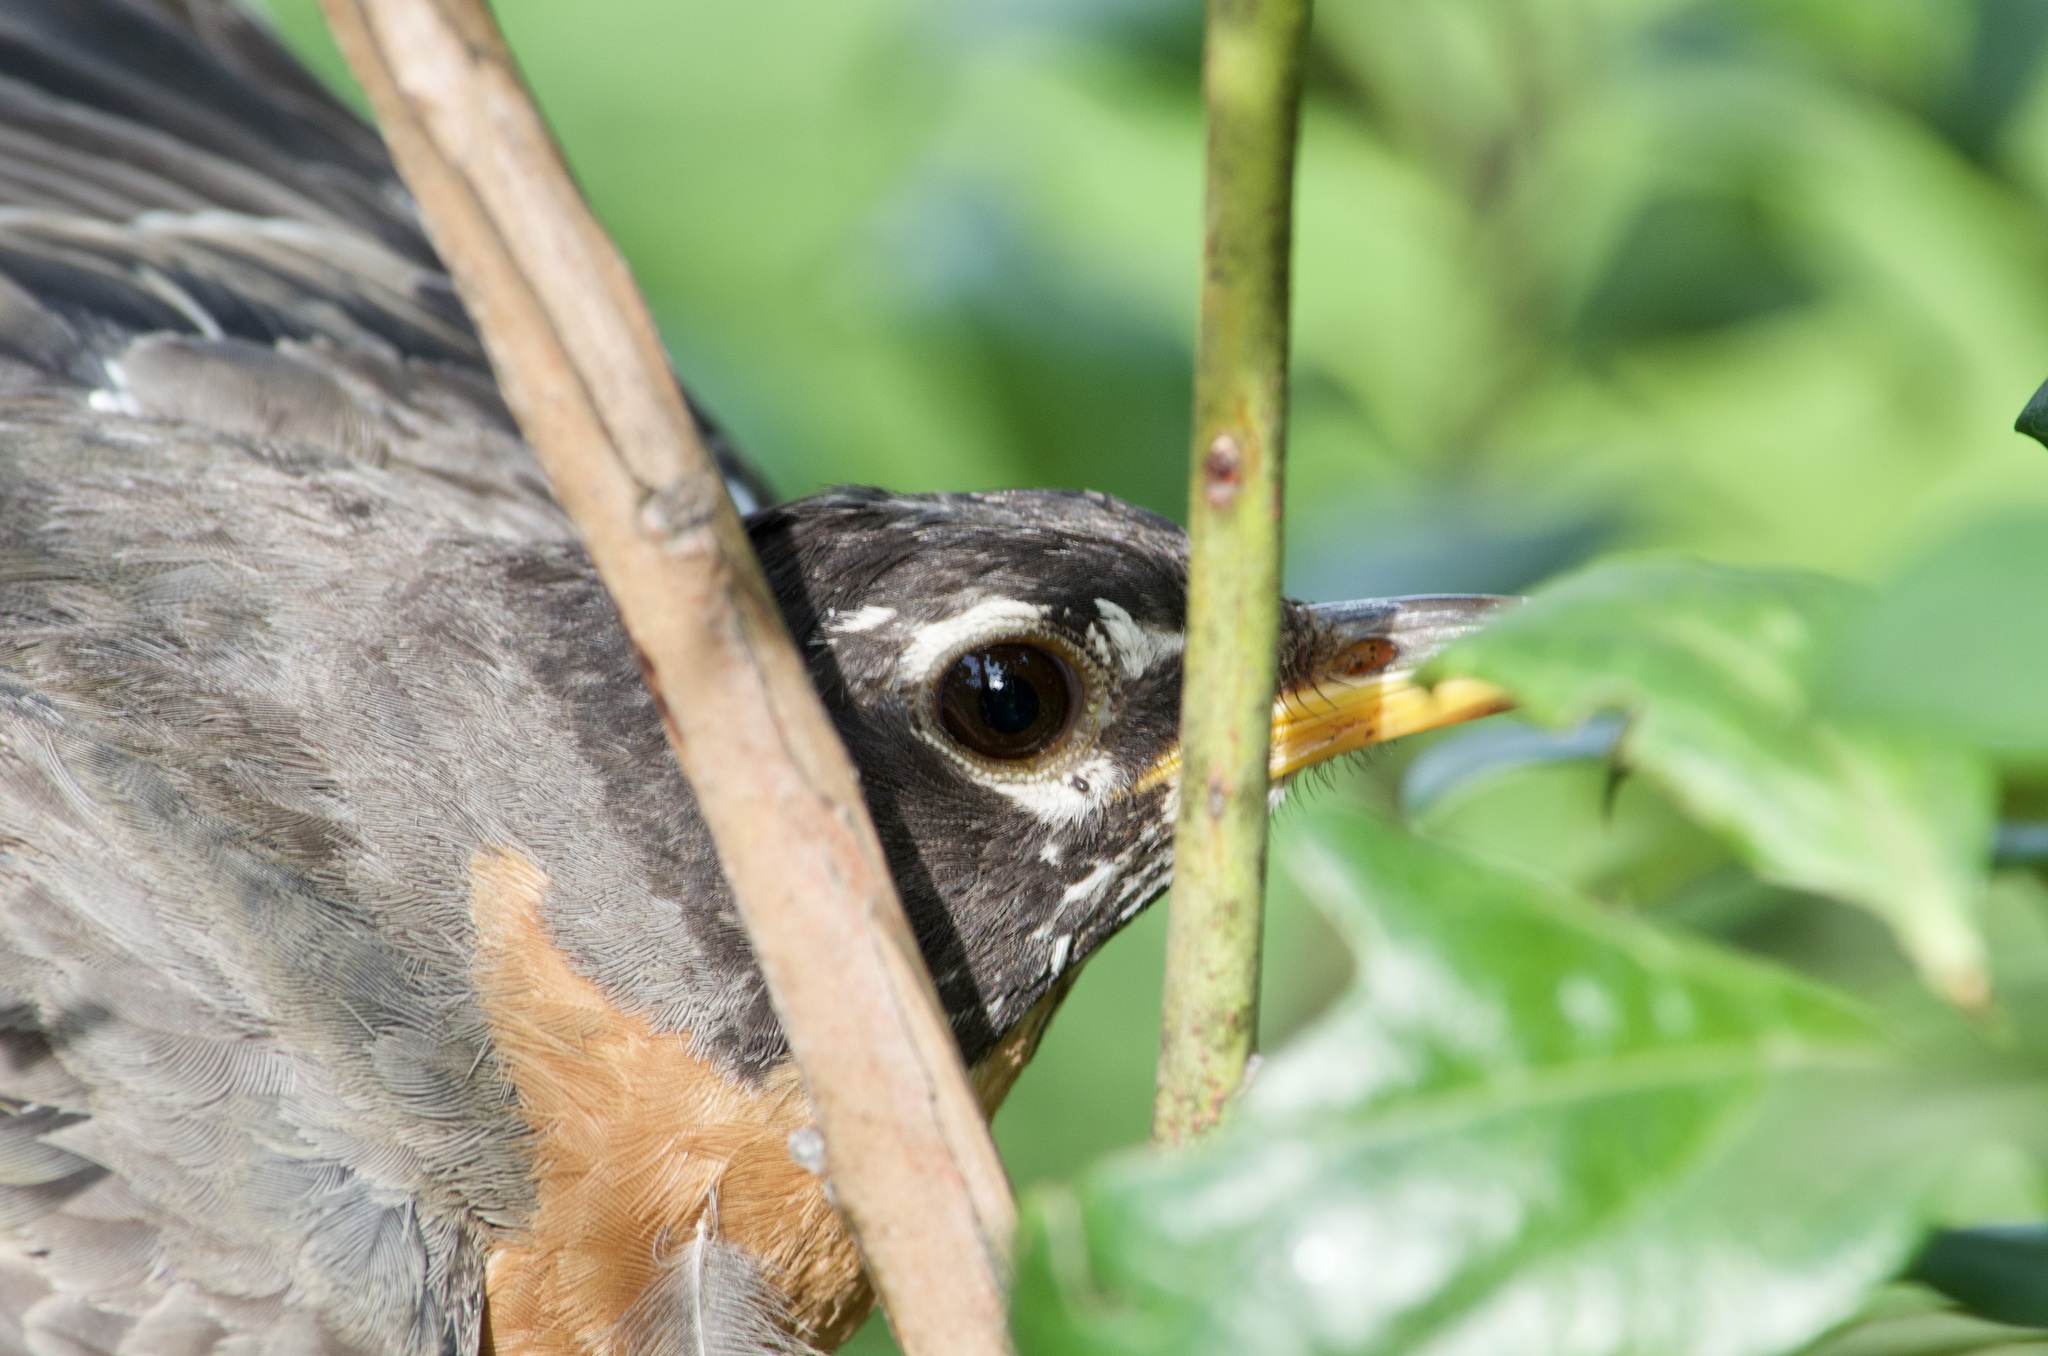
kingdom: Animalia
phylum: Chordata
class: Aves
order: Passeriformes
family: Turdidae
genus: Turdus
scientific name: Turdus migratorius
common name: American robin
